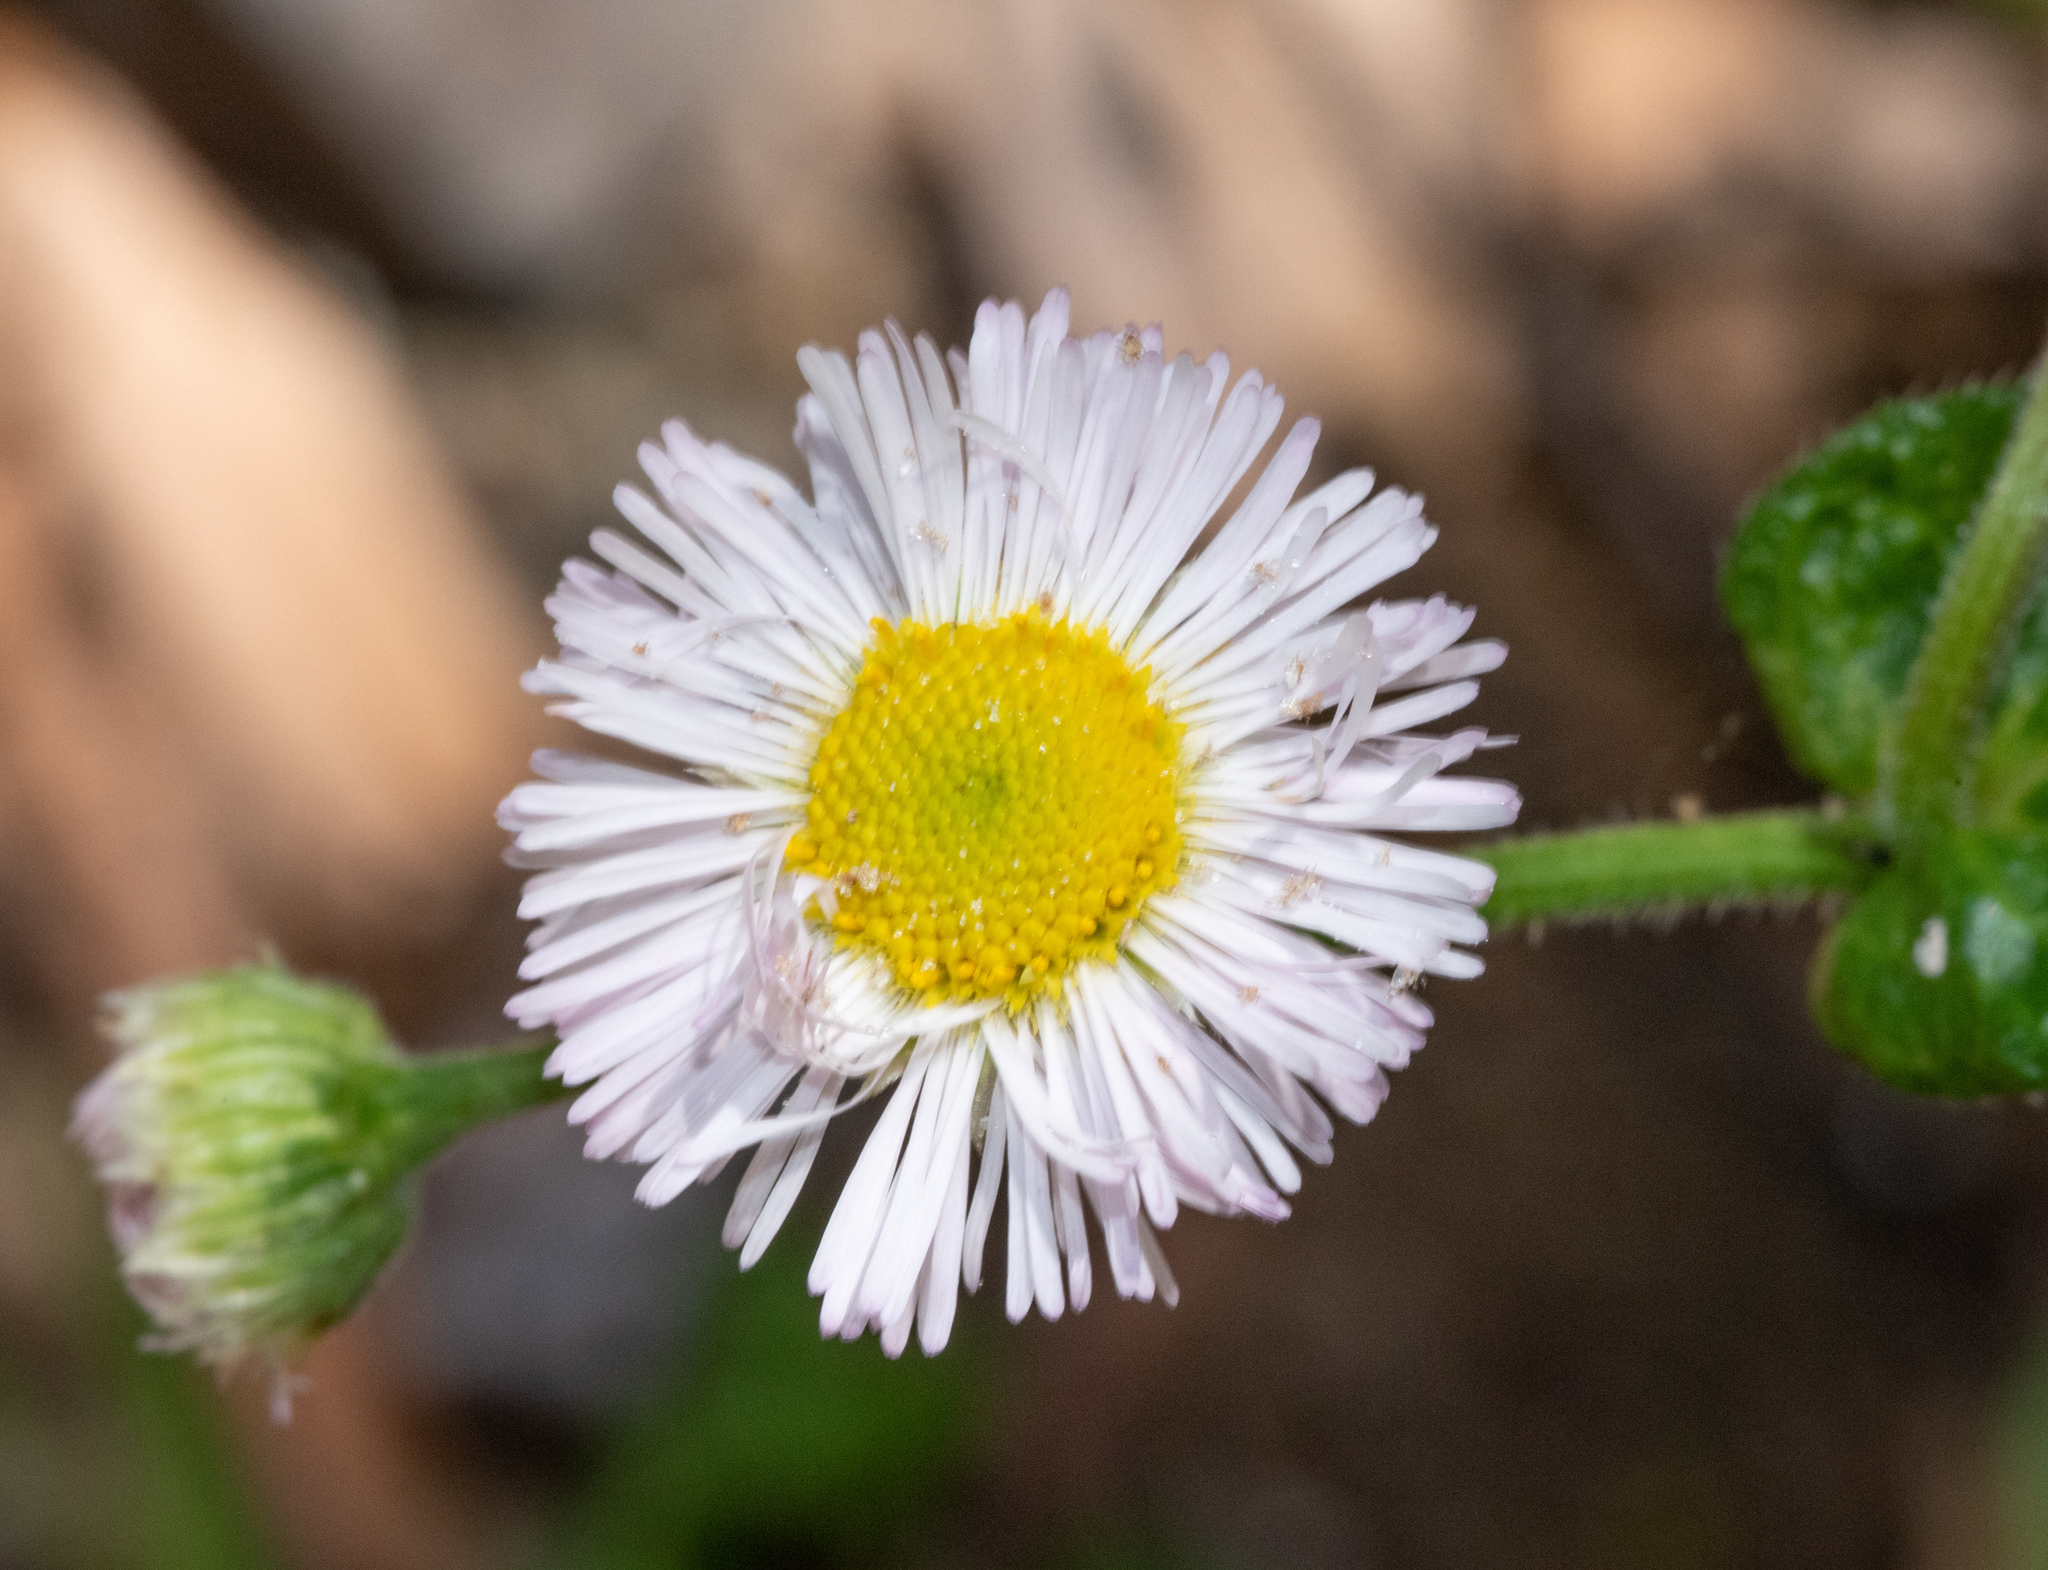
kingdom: Plantae
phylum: Tracheophyta
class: Magnoliopsida
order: Asterales
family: Asteraceae
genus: Erigeron
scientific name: Erigeron philadelphicus
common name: Robin's-plantain
